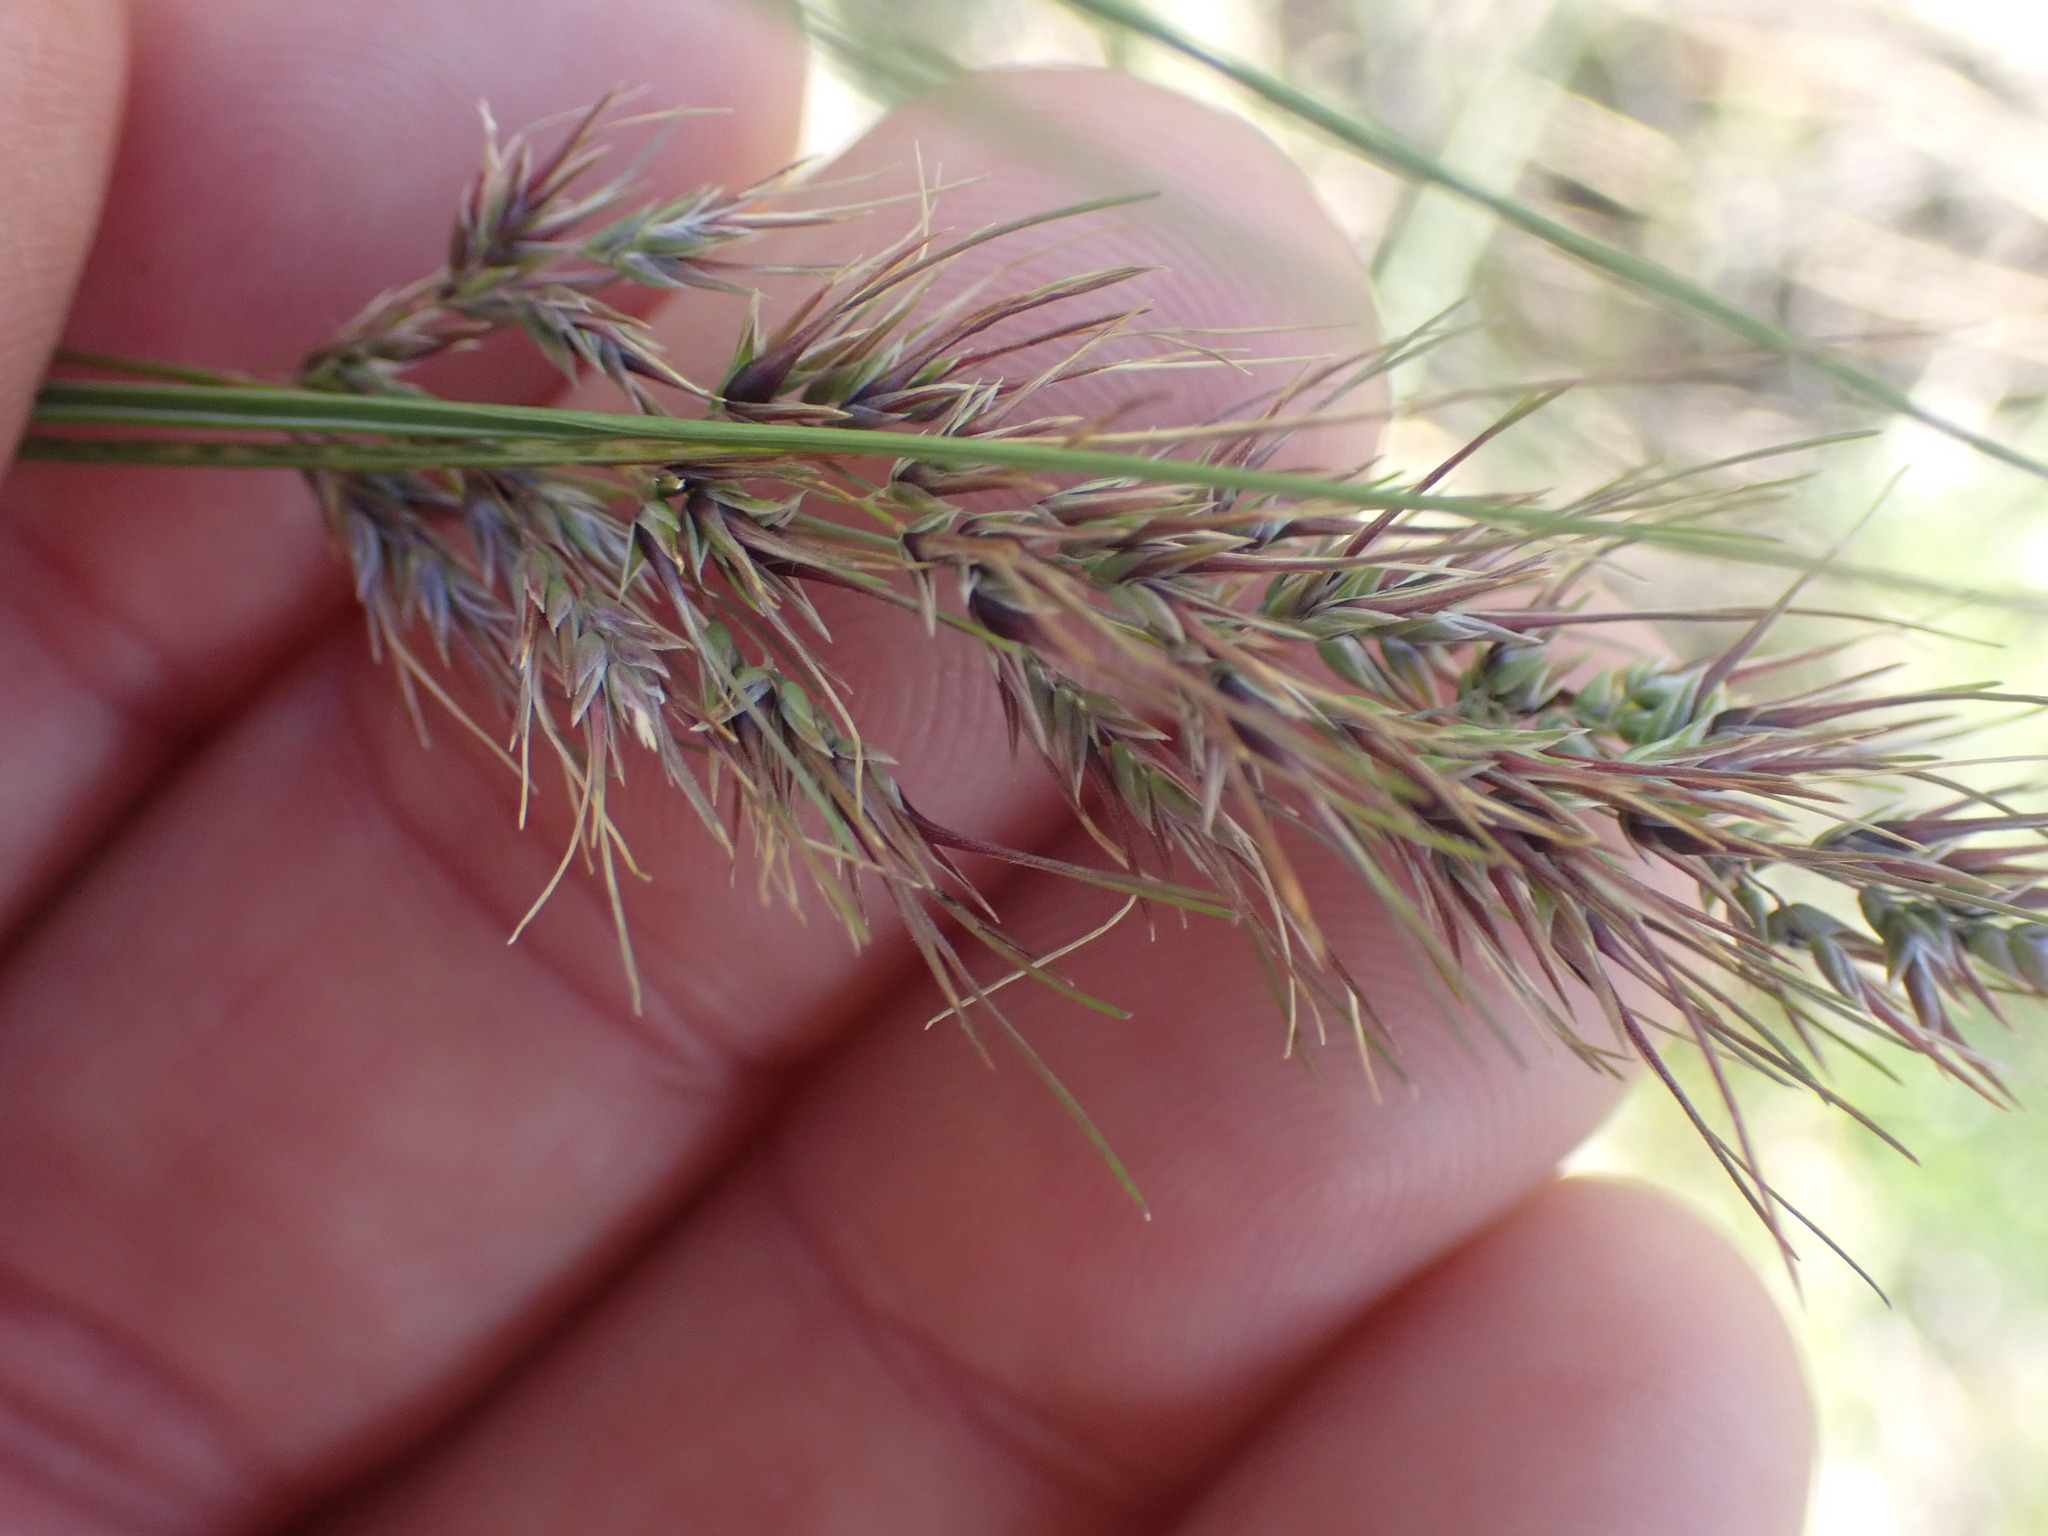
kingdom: Plantae
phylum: Tracheophyta
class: Liliopsida
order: Poales
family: Poaceae
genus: Poa
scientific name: Poa bulbosa
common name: Bulbous bluegrass
